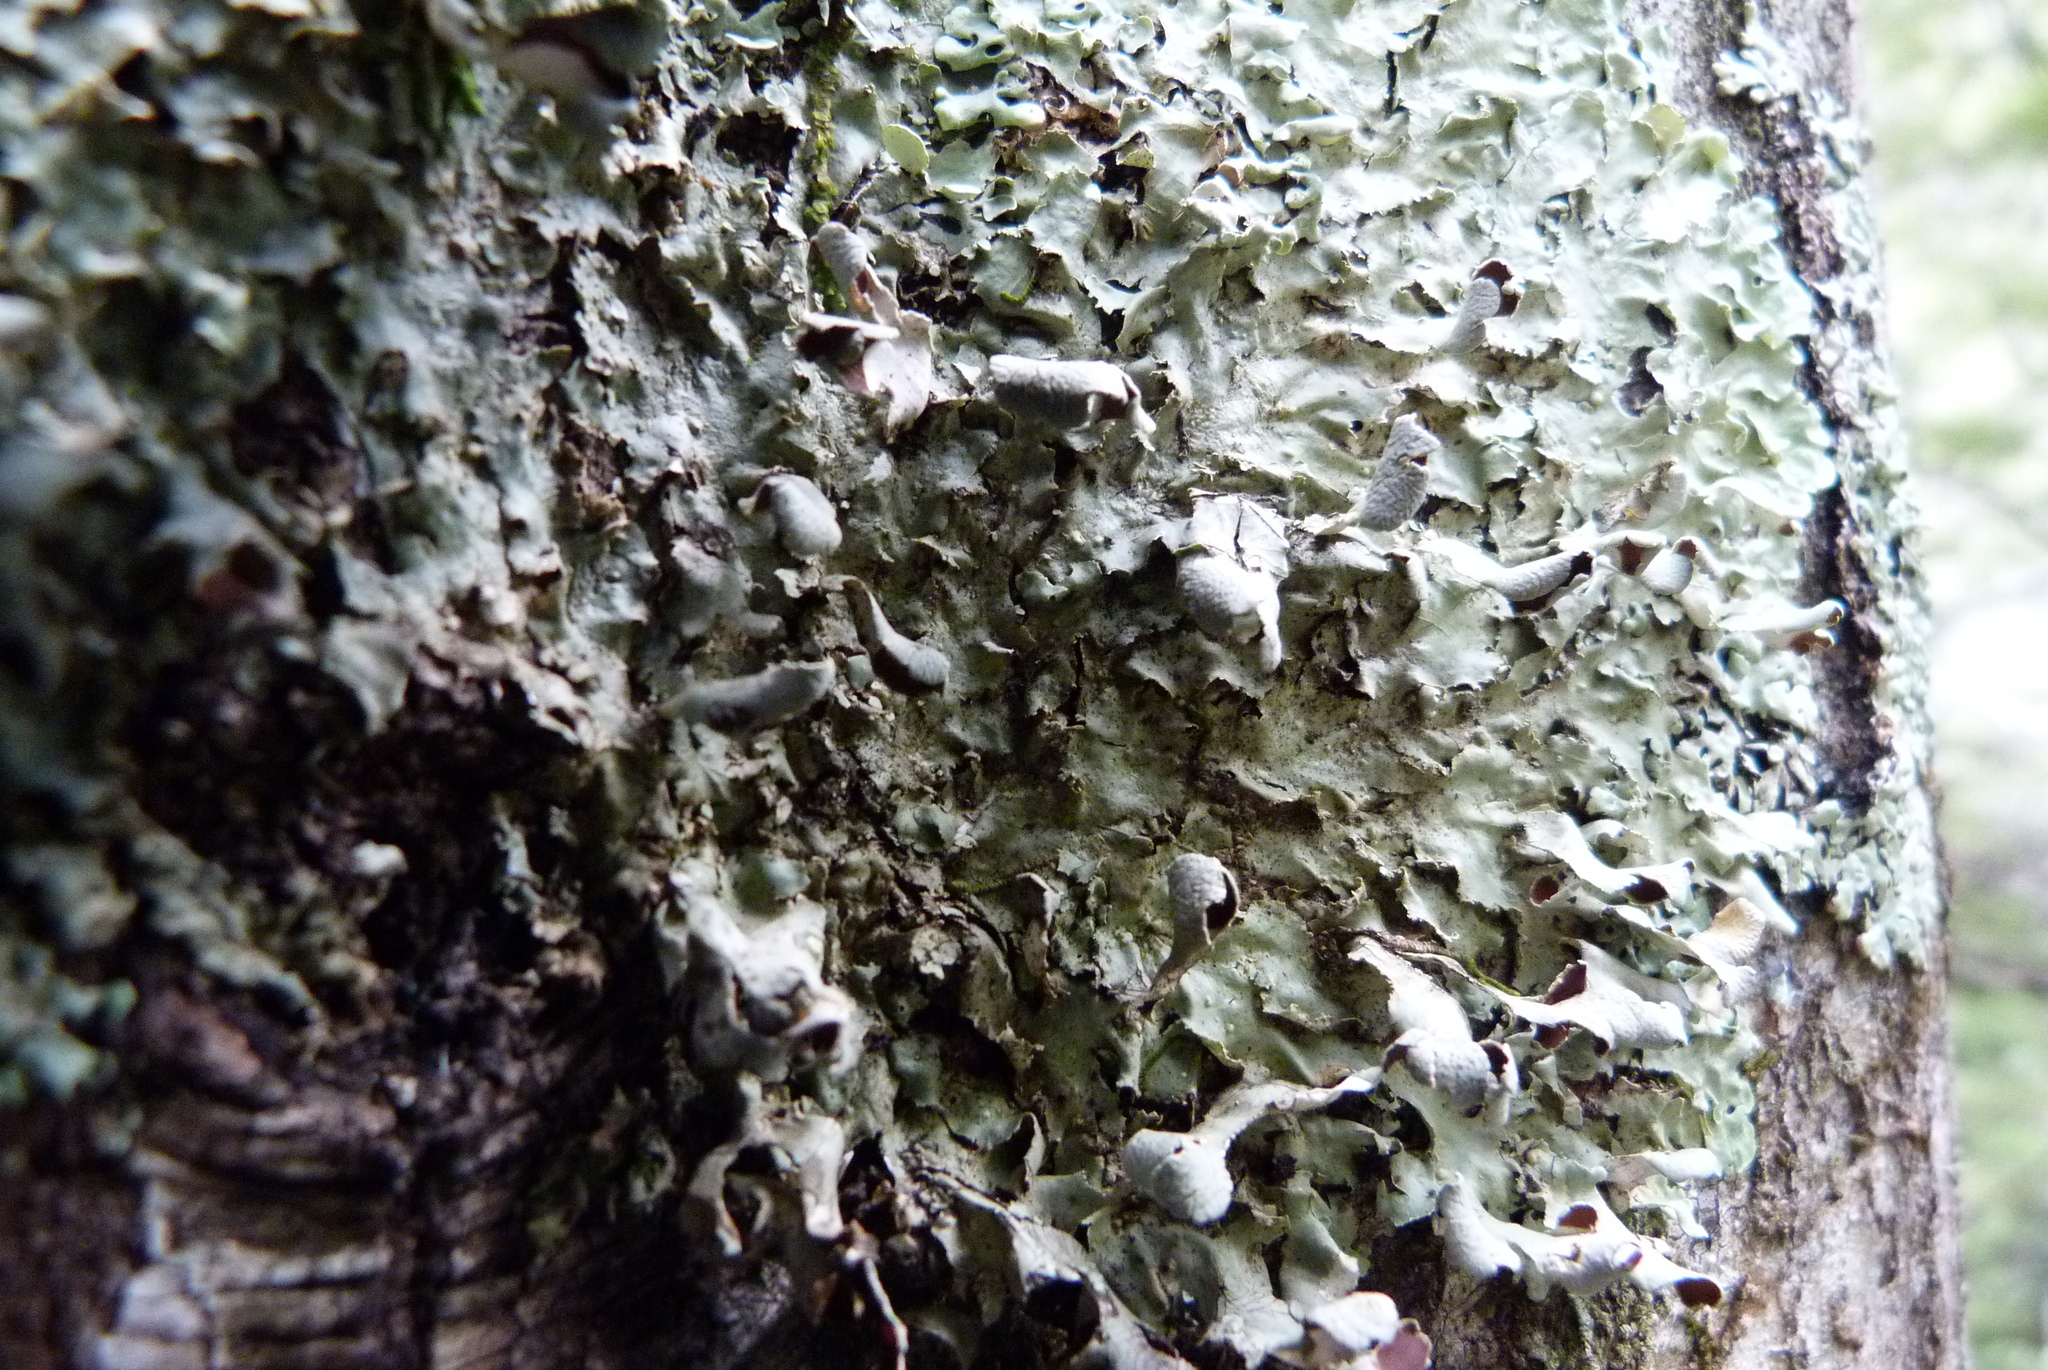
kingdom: Fungi
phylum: Ascomycota
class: Lecanoromycetes
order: Peltigerales
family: Nephromataceae
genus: Nephroma
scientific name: Nephroma australe
